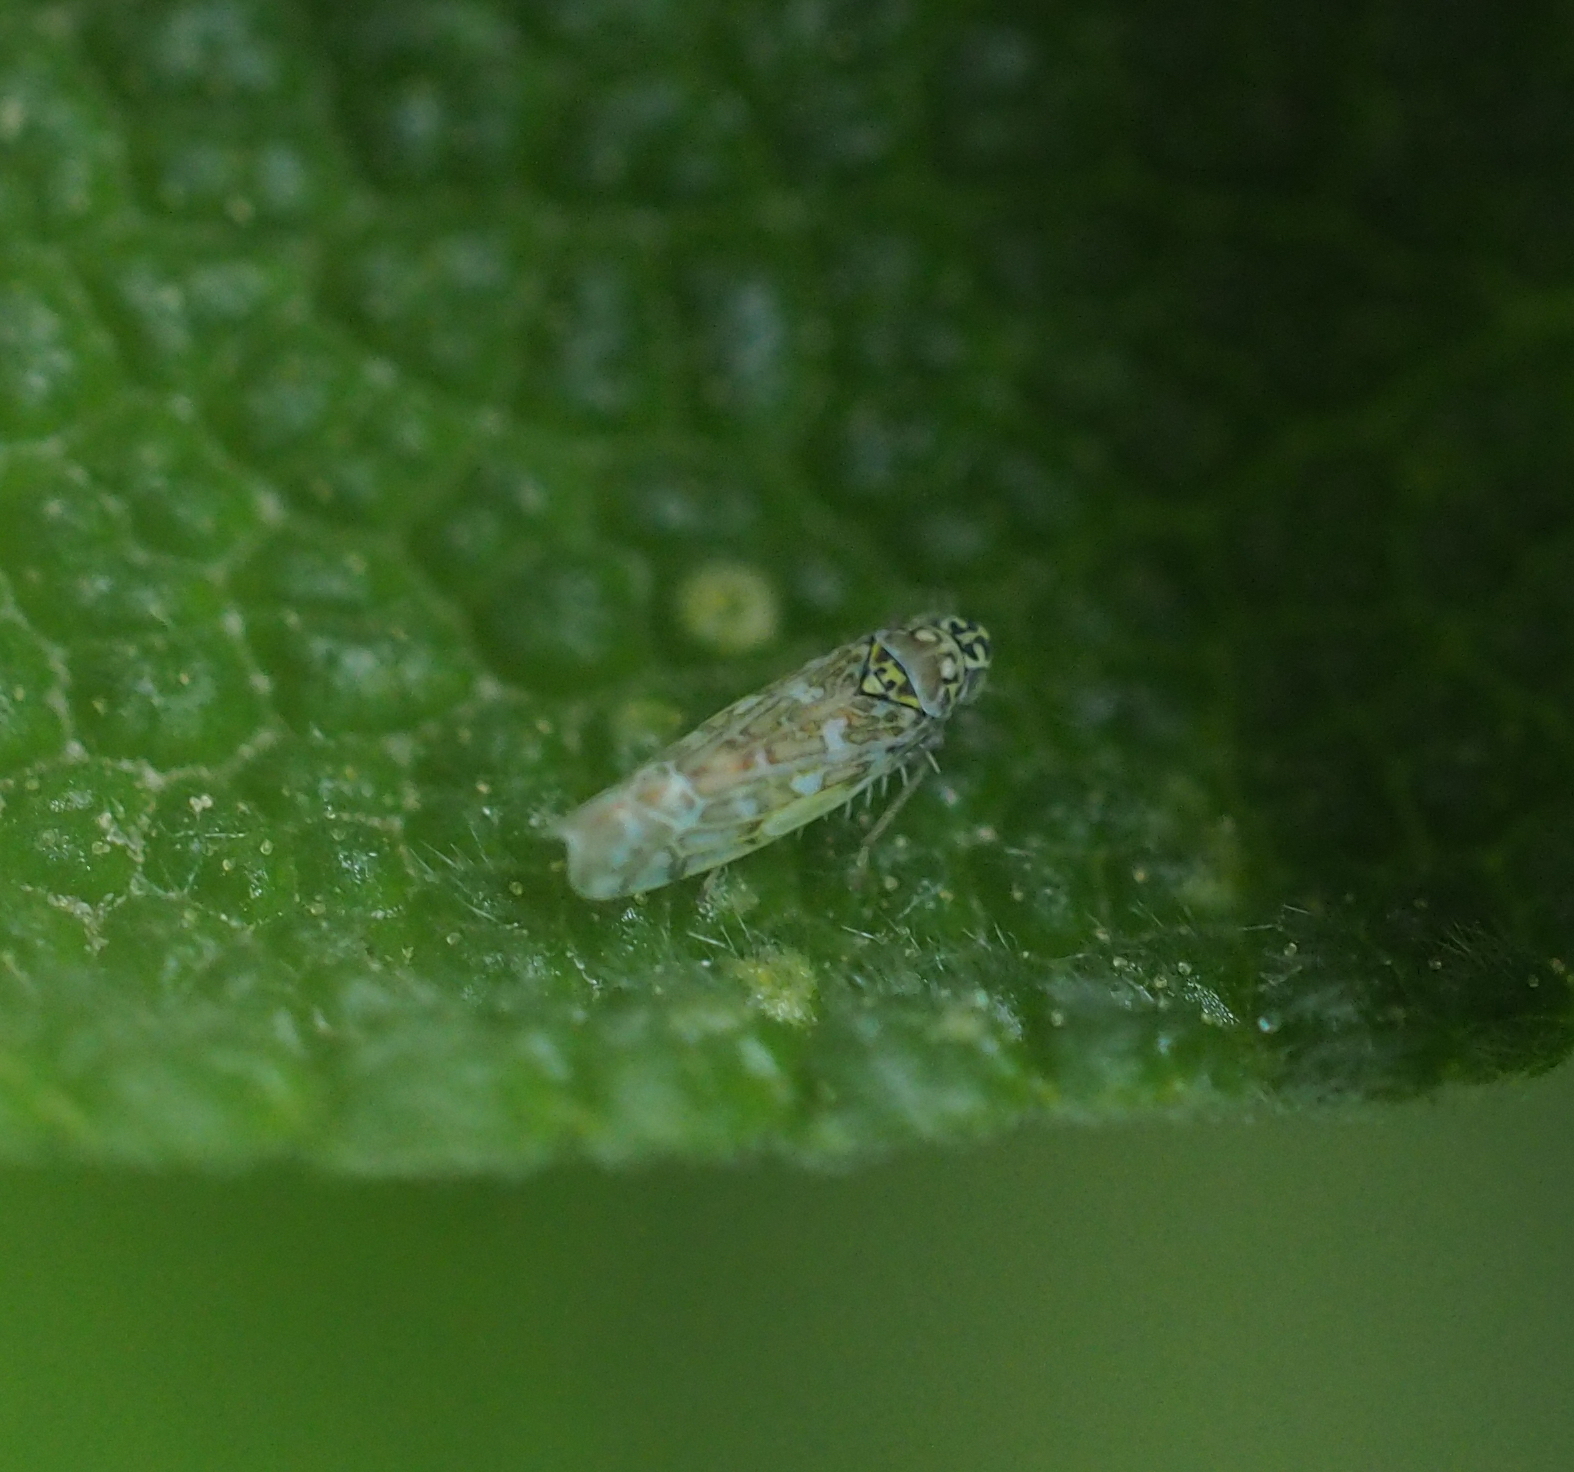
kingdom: Animalia
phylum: Arthropoda
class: Insecta
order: Hemiptera
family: Cicadellidae
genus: Eupteryx
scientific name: Eupteryx decemnotata
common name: Ligurian leafhopper
